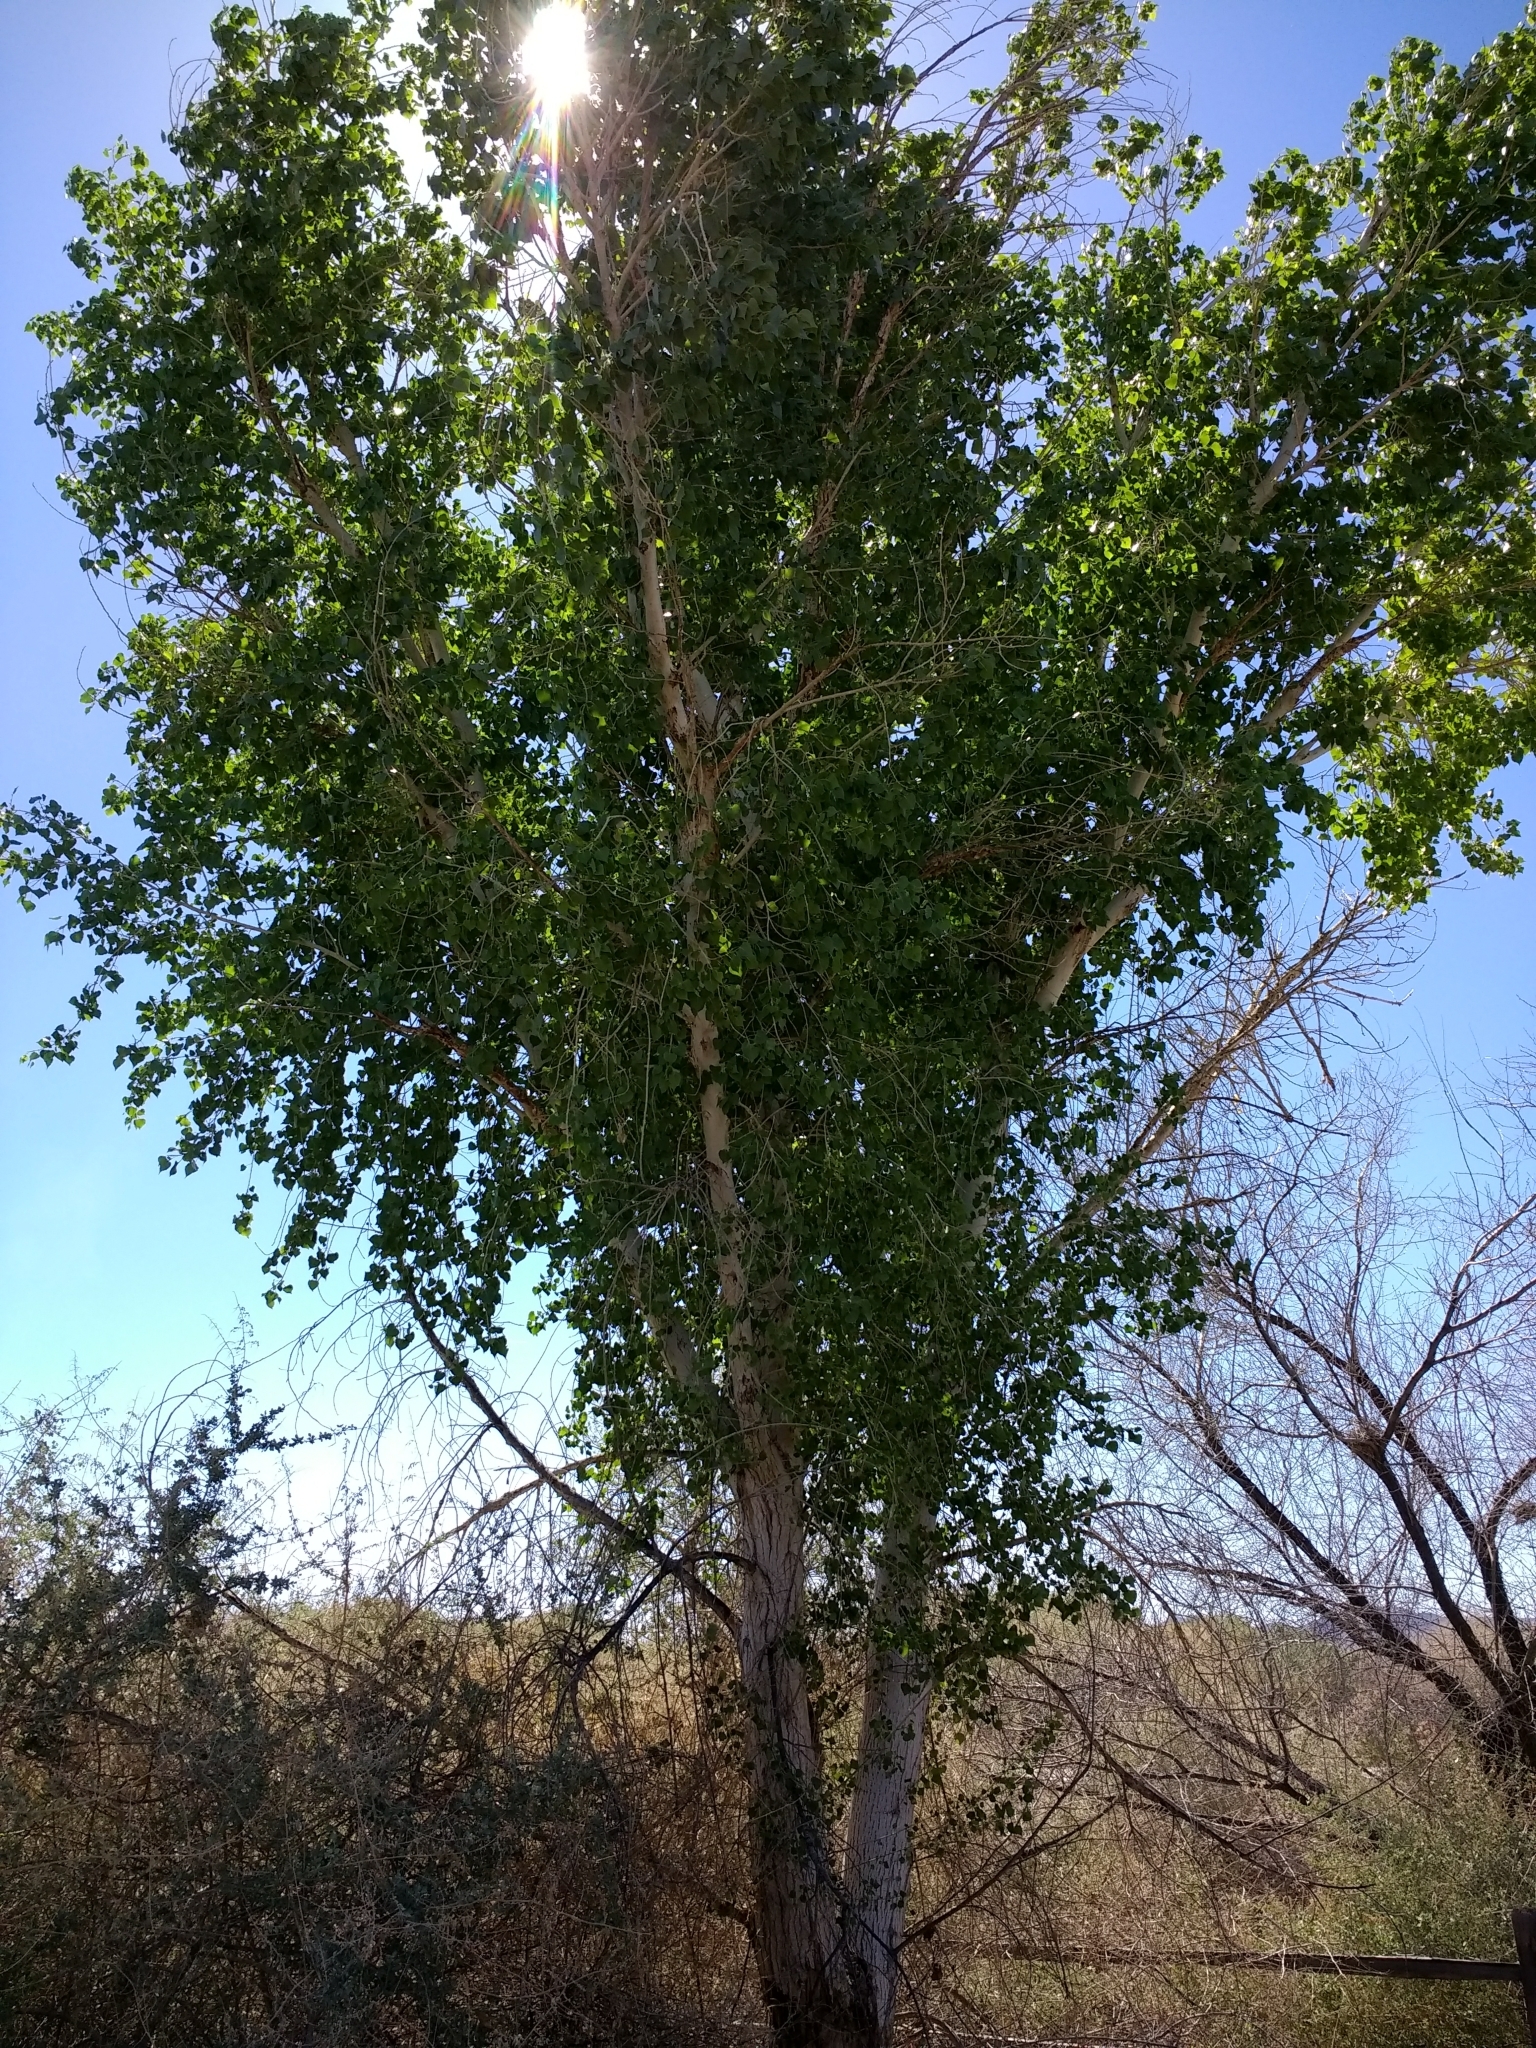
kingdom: Plantae
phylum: Tracheophyta
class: Magnoliopsida
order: Malpighiales
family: Salicaceae
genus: Populus
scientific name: Populus fremontii
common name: Fremont's cottonwood
